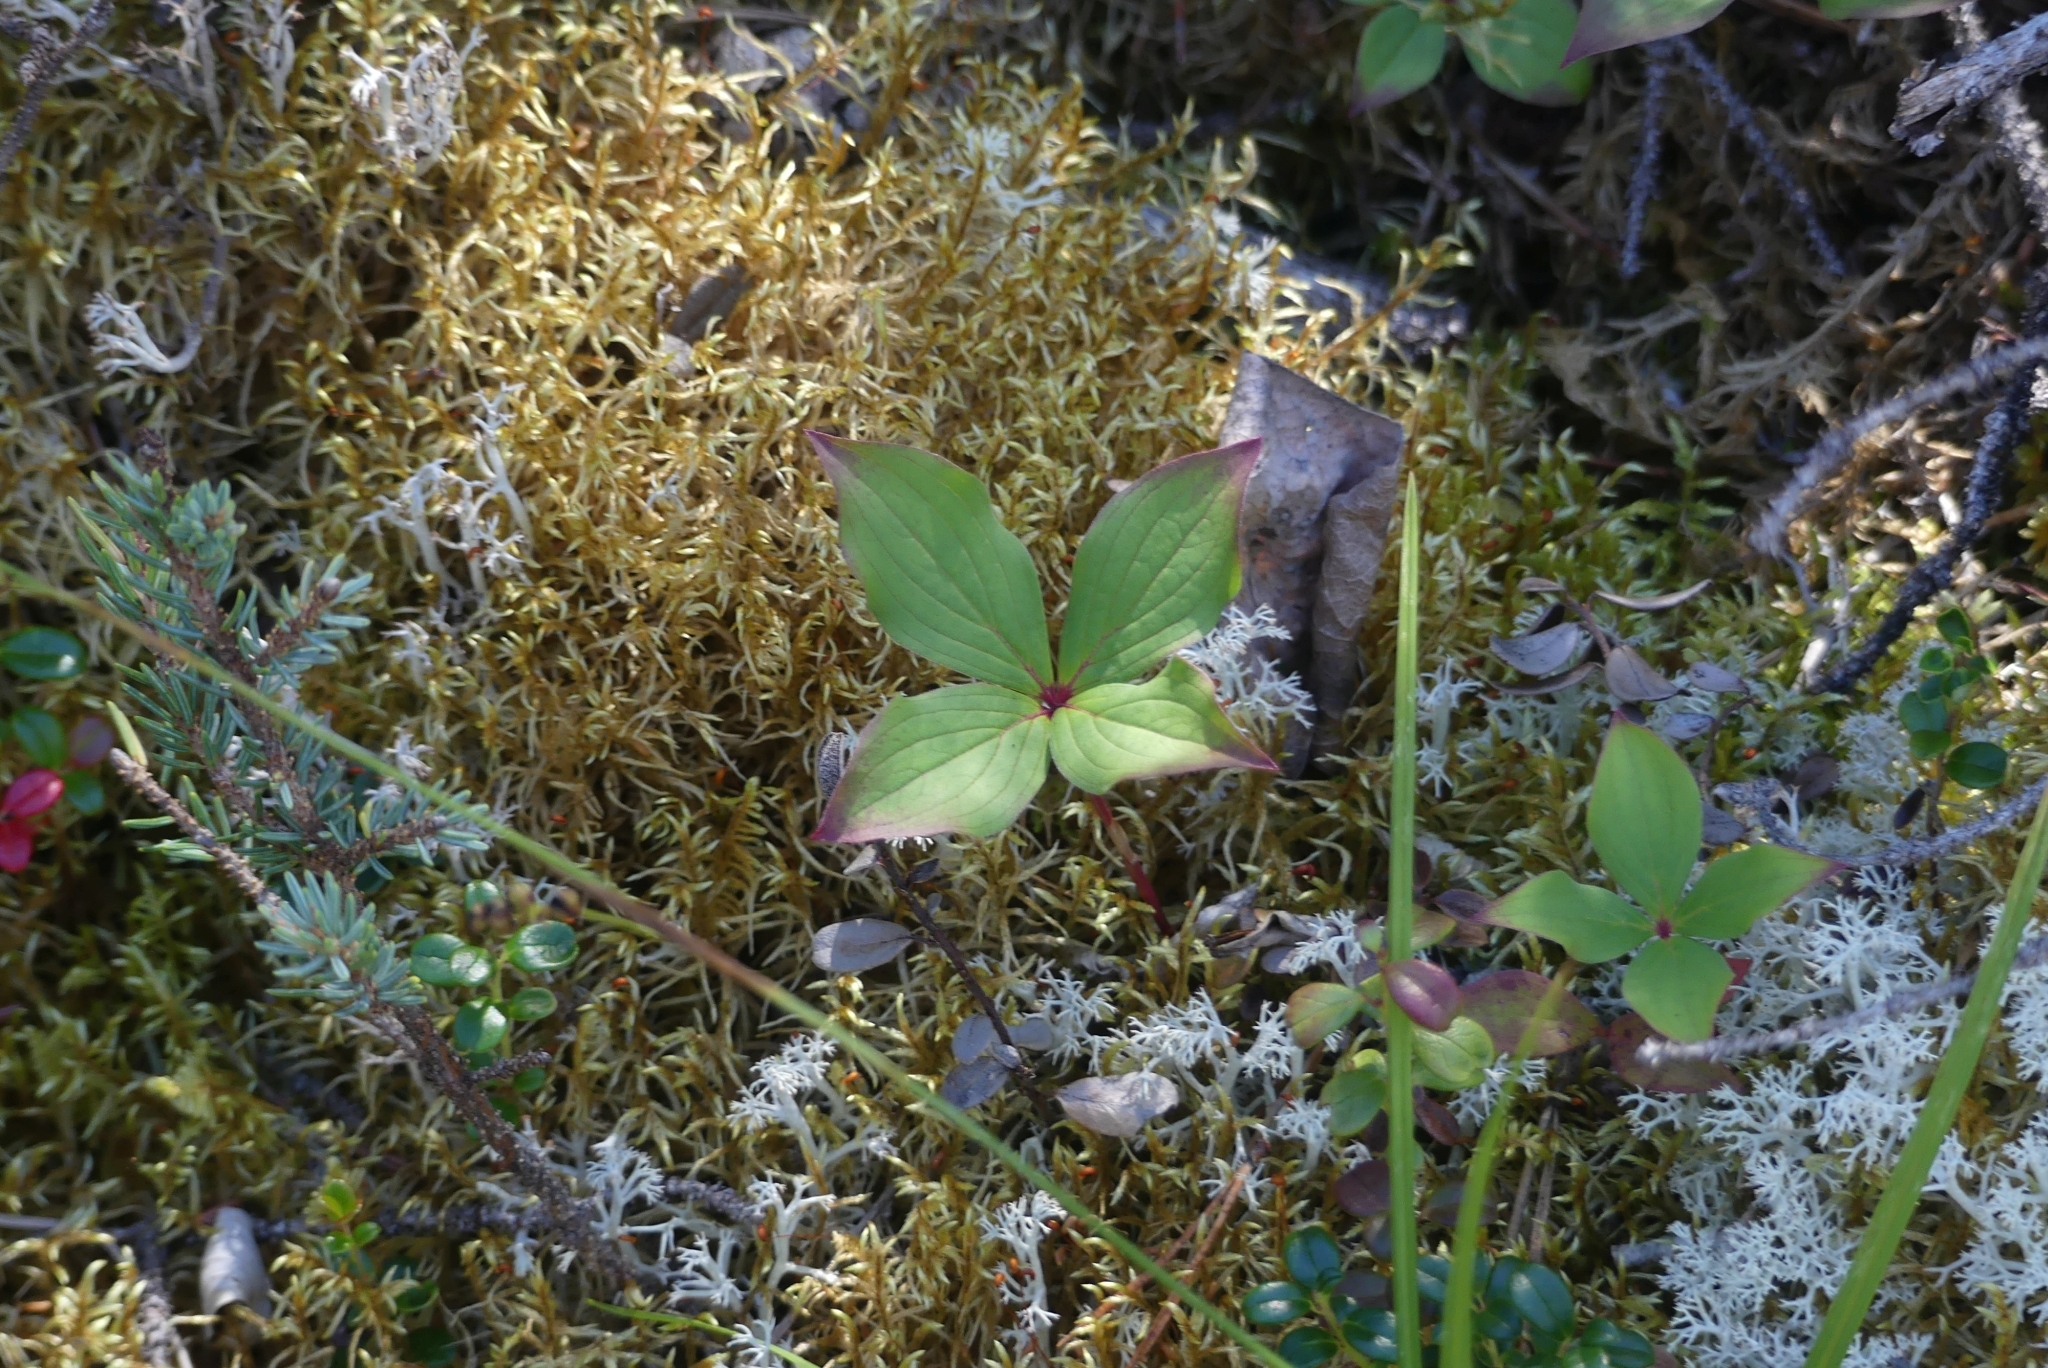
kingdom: Plantae
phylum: Tracheophyta
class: Magnoliopsida
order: Cornales
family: Cornaceae
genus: Cornus
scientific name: Cornus canadensis
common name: Creeping dogwood
